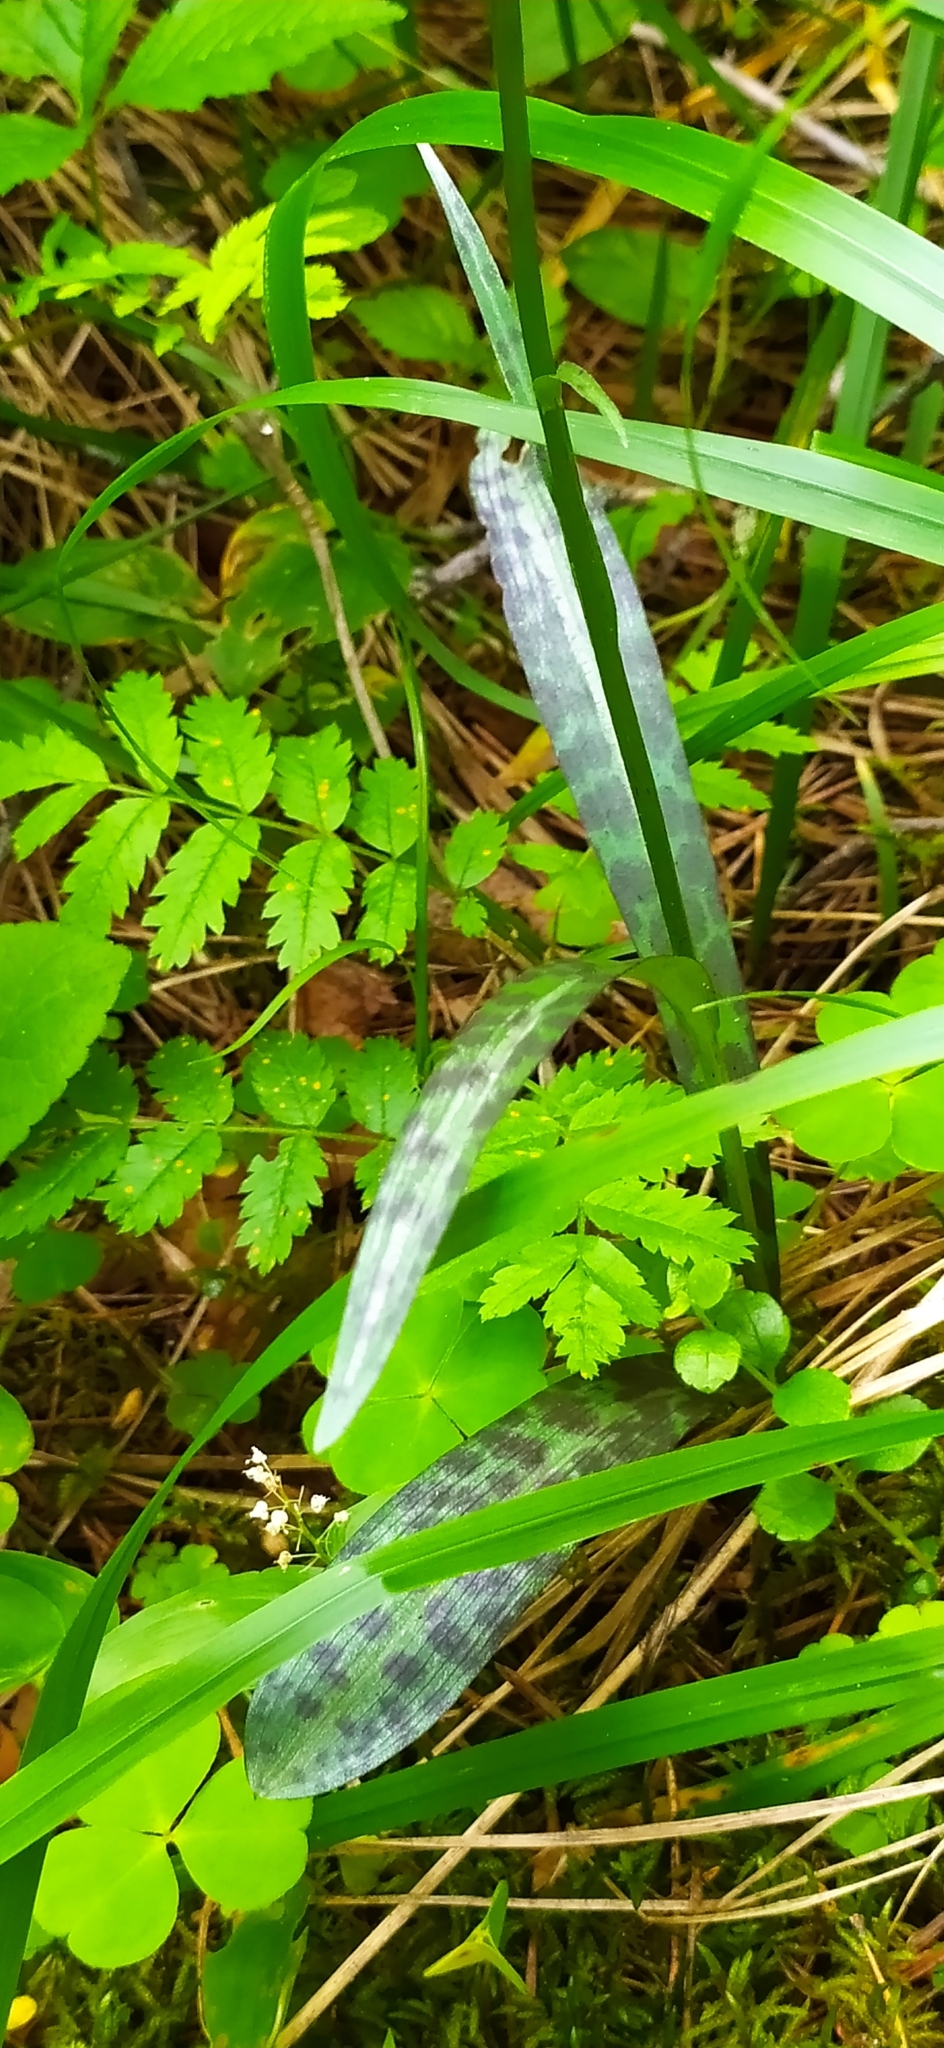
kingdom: Plantae
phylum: Tracheophyta
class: Liliopsida
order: Asparagales
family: Orchidaceae
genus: Dactylorhiza
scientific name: Dactylorhiza maculata
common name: Heath spotted-orchid
